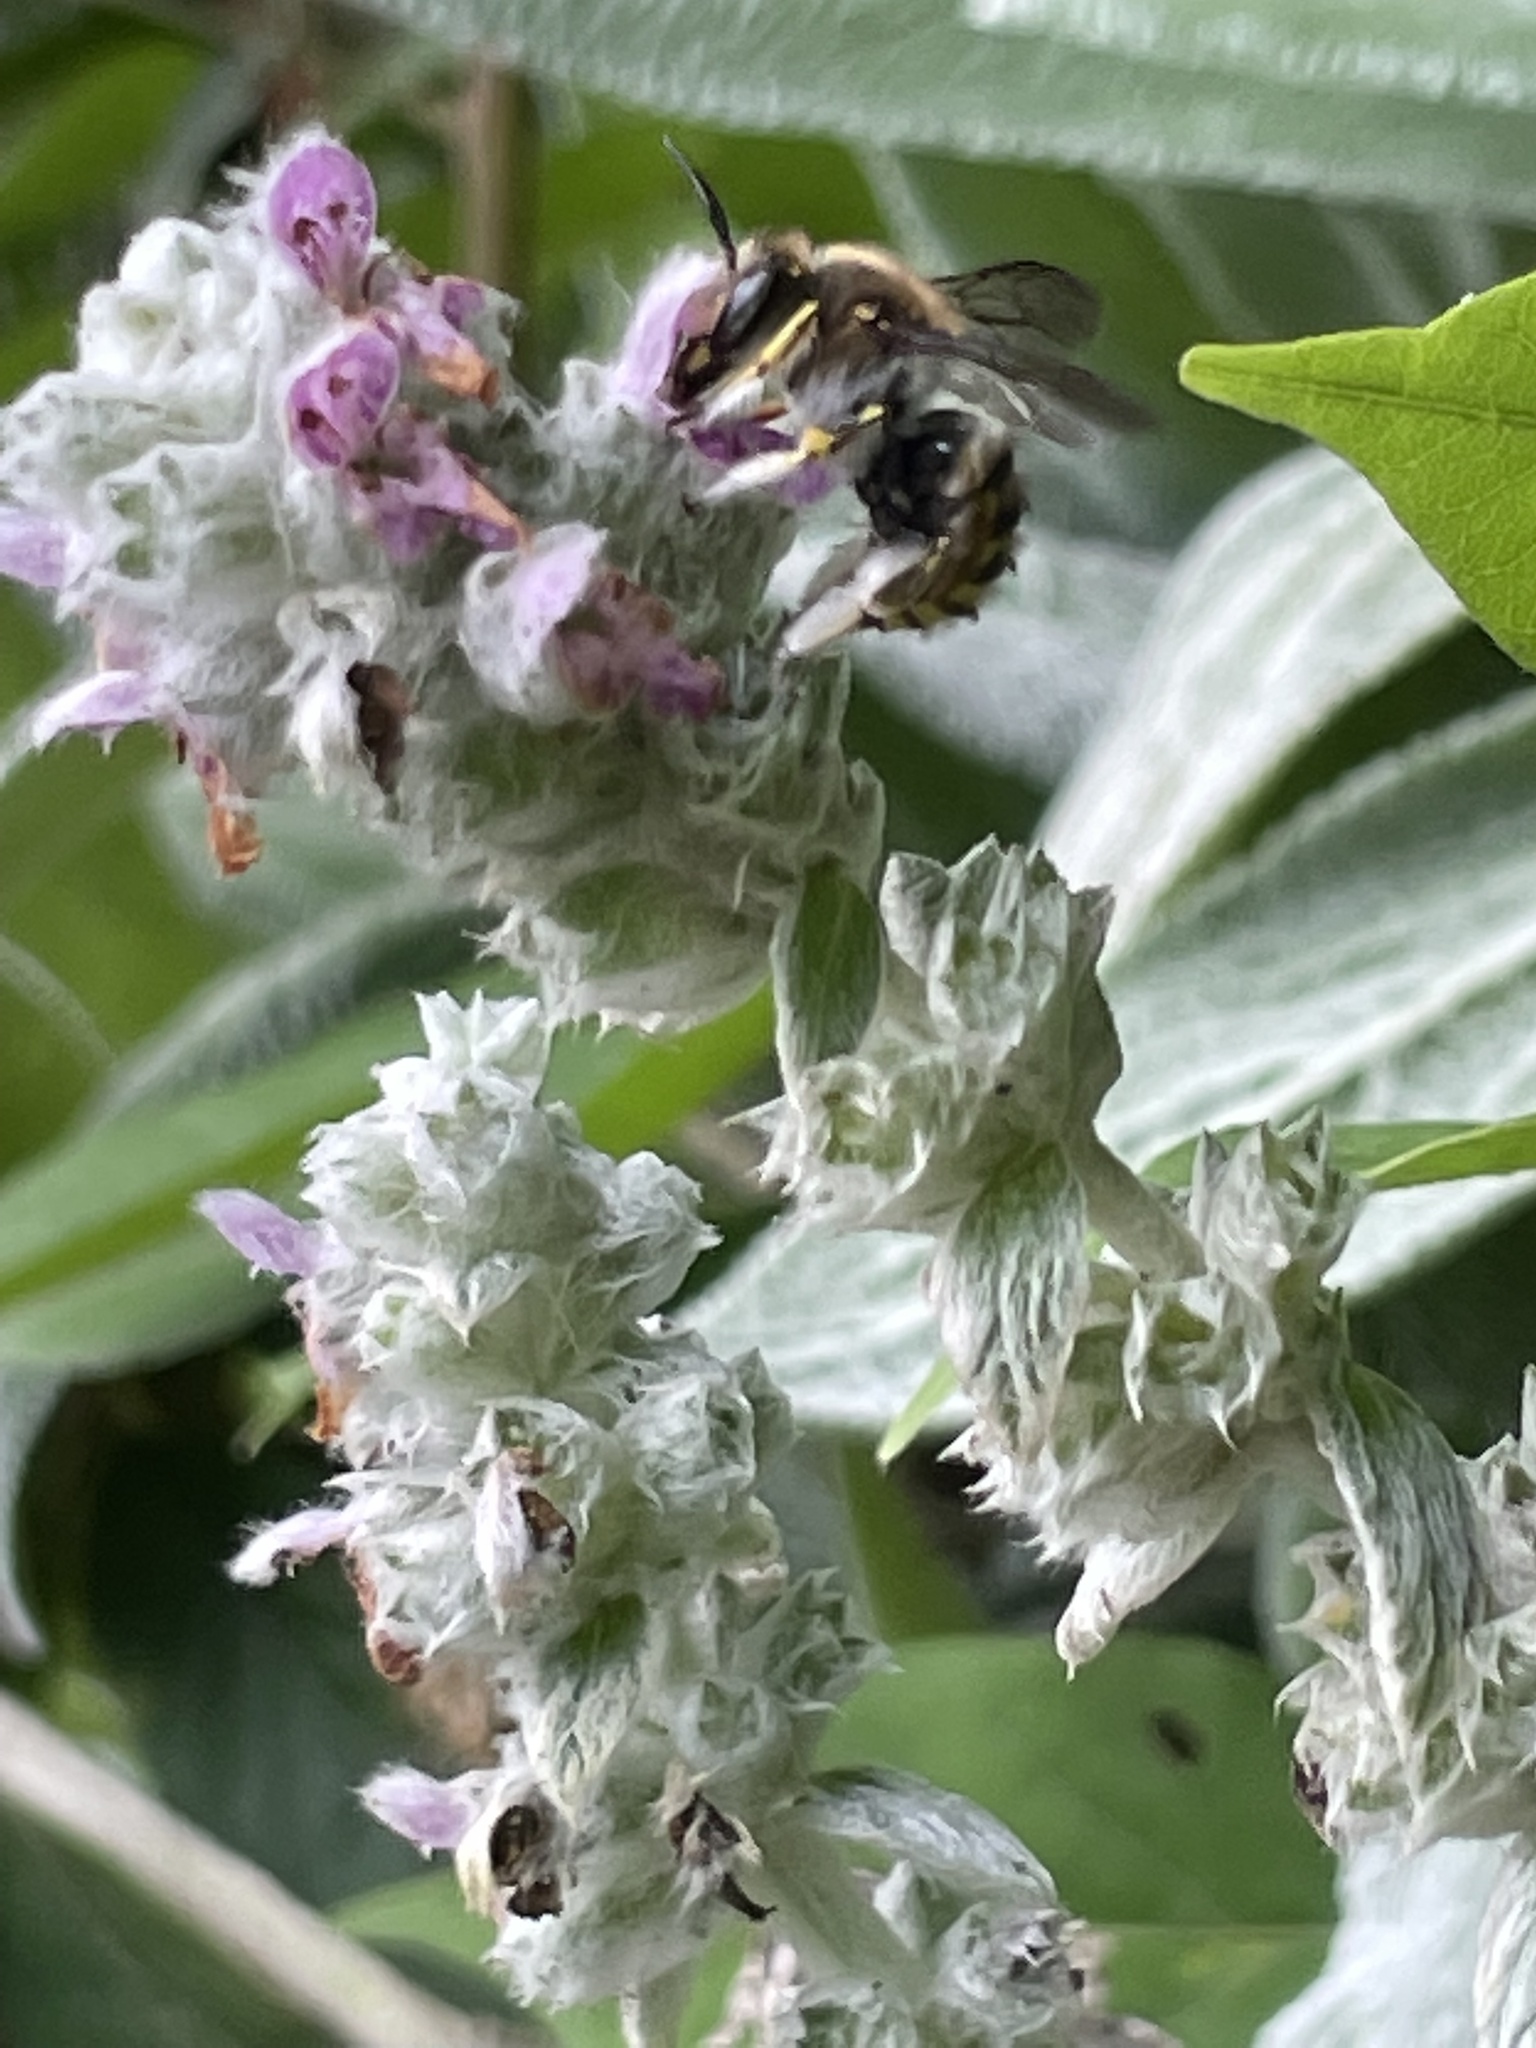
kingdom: Animalia
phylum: Arthropoda
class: Insecta
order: Hymenoptera
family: Megachilidae
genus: Anthidium
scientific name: Anthidium manicatum
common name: Wool carder bee
